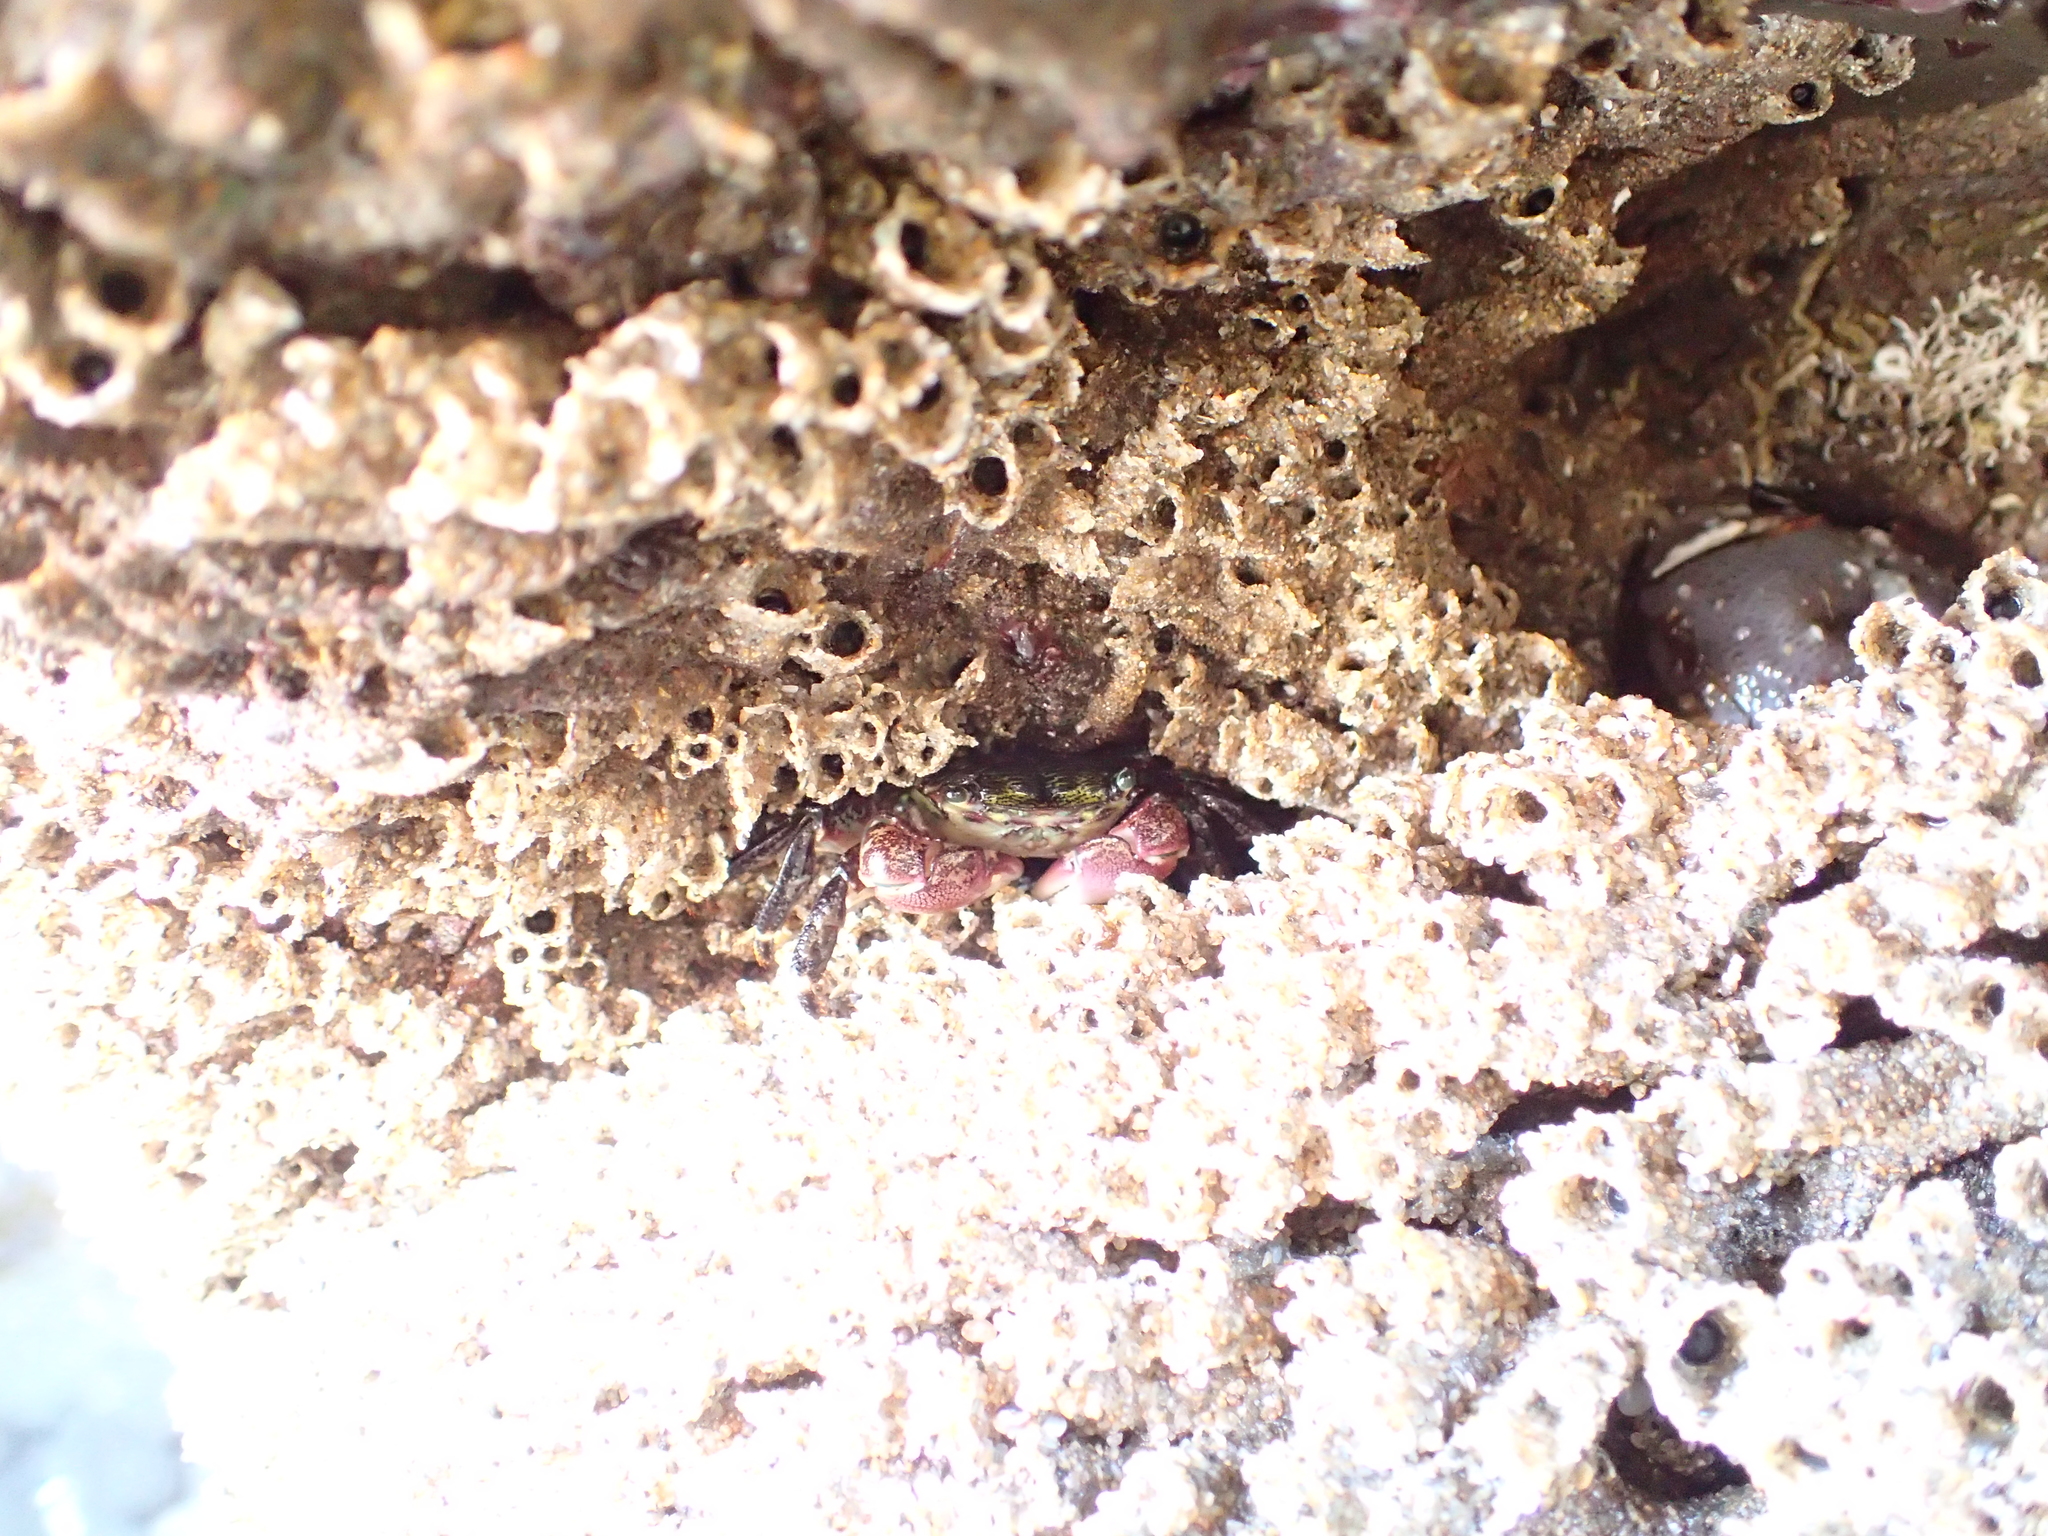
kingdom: Animalia
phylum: Arthropoda
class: Malacostraca
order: Decapoda
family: Grapsidae
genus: Pachygrapsus
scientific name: Pachygrapsus crassipes
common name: Striped shore crab
